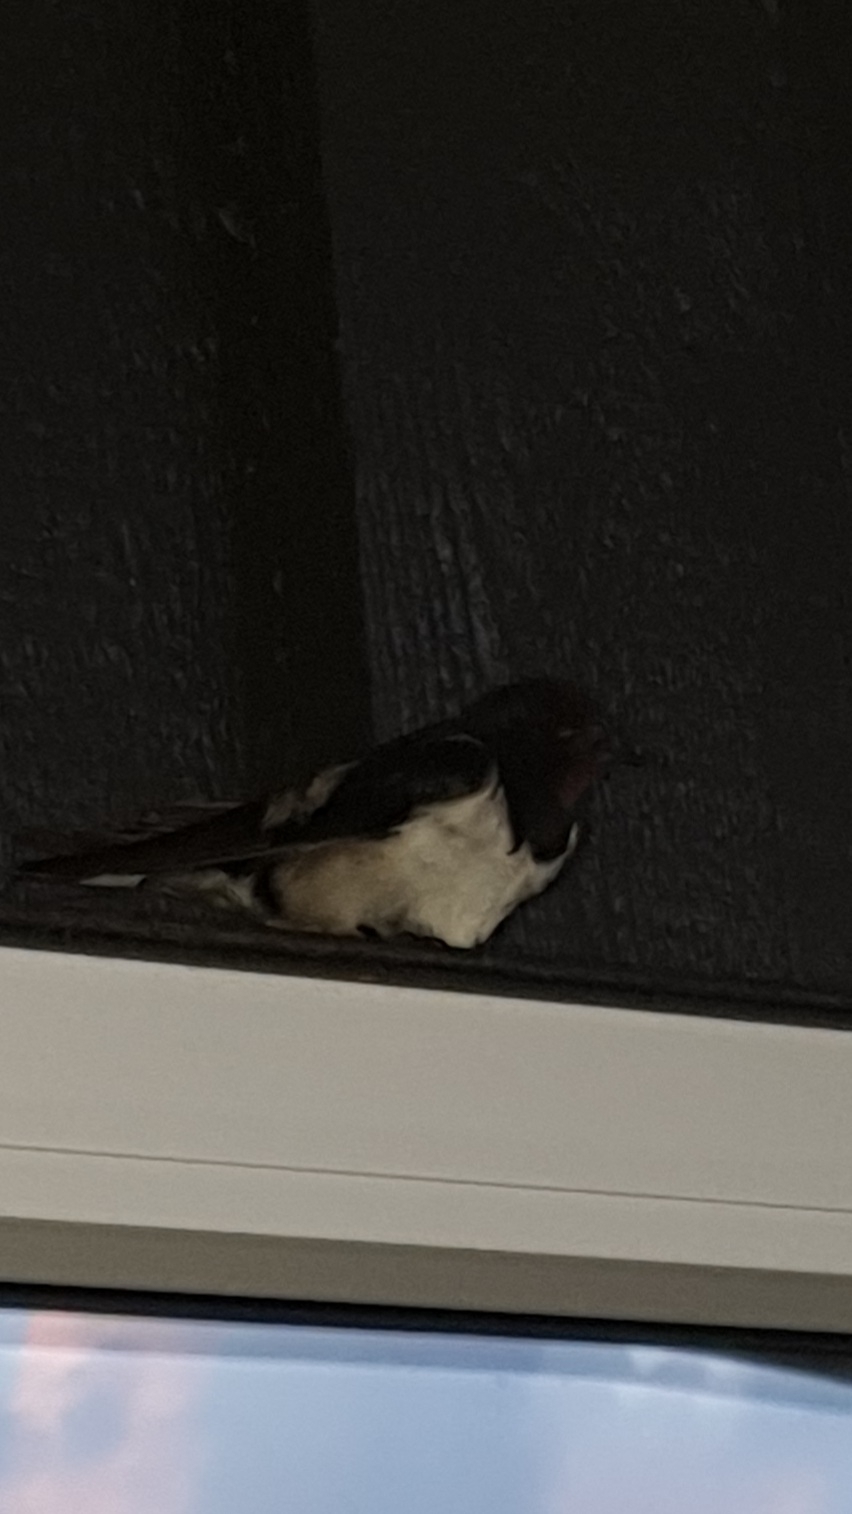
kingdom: Animalia
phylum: Chordata
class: Aves
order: Passeriformes
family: Hirundinidae
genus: Hirundo
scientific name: Hirundo rustica
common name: Barn swallow
